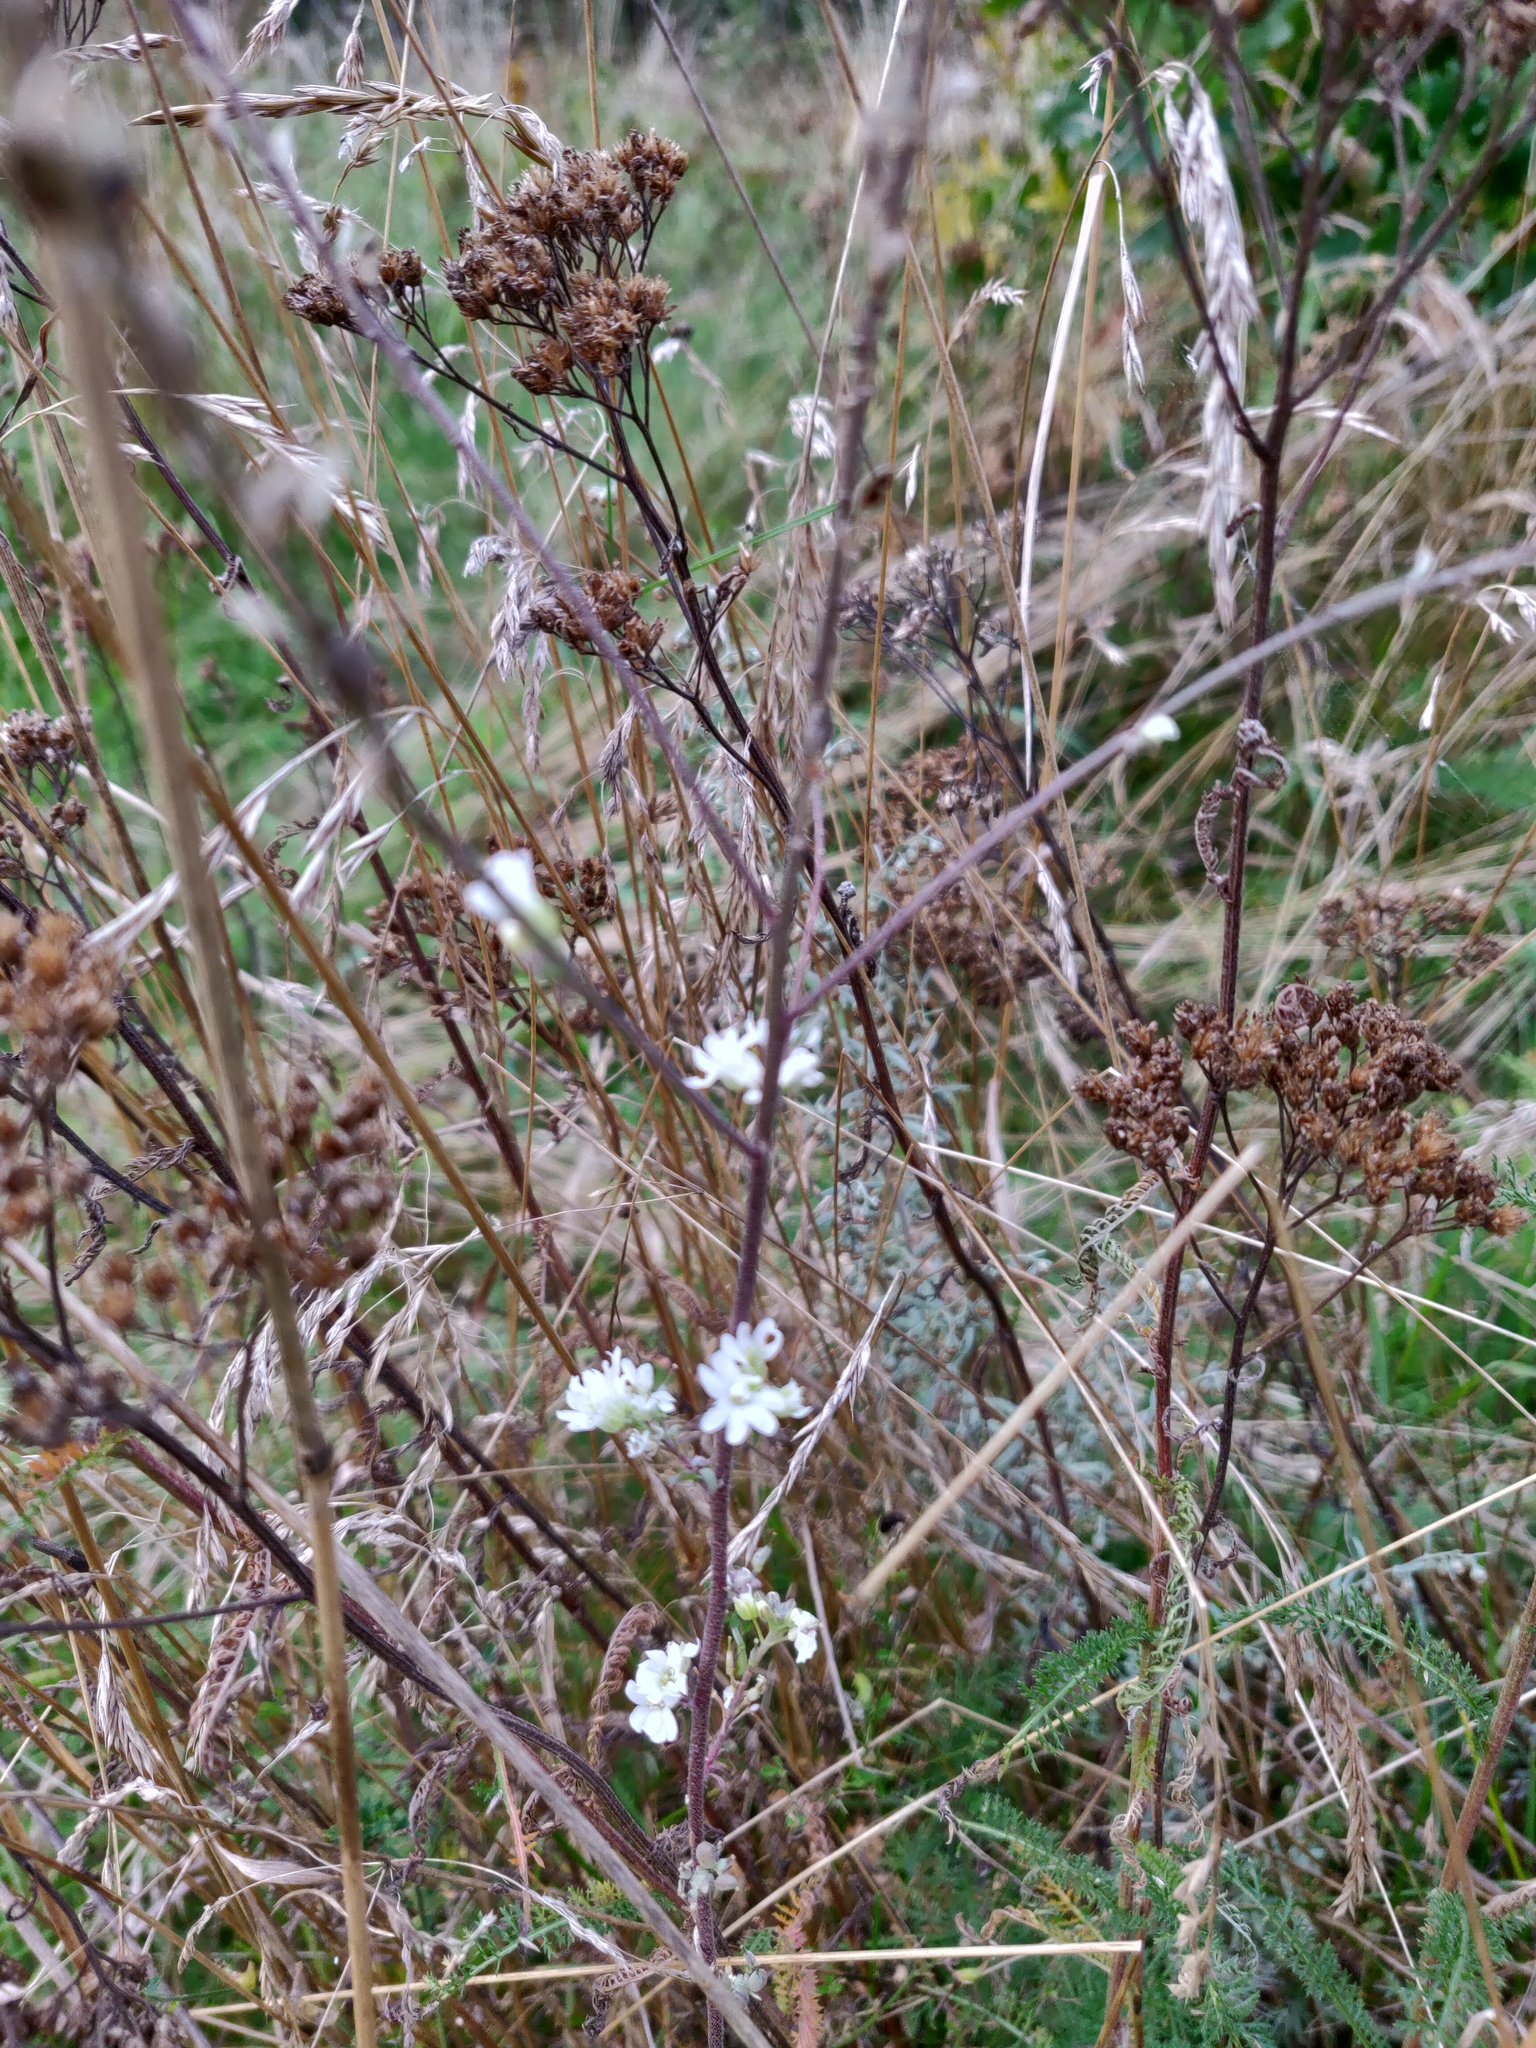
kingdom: Plantae
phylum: Tracheophyta
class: Magnoliopsida
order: Brassicales
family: Brassicaceae
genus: Berteroa
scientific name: Berteroa incana
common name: Hoary alison
